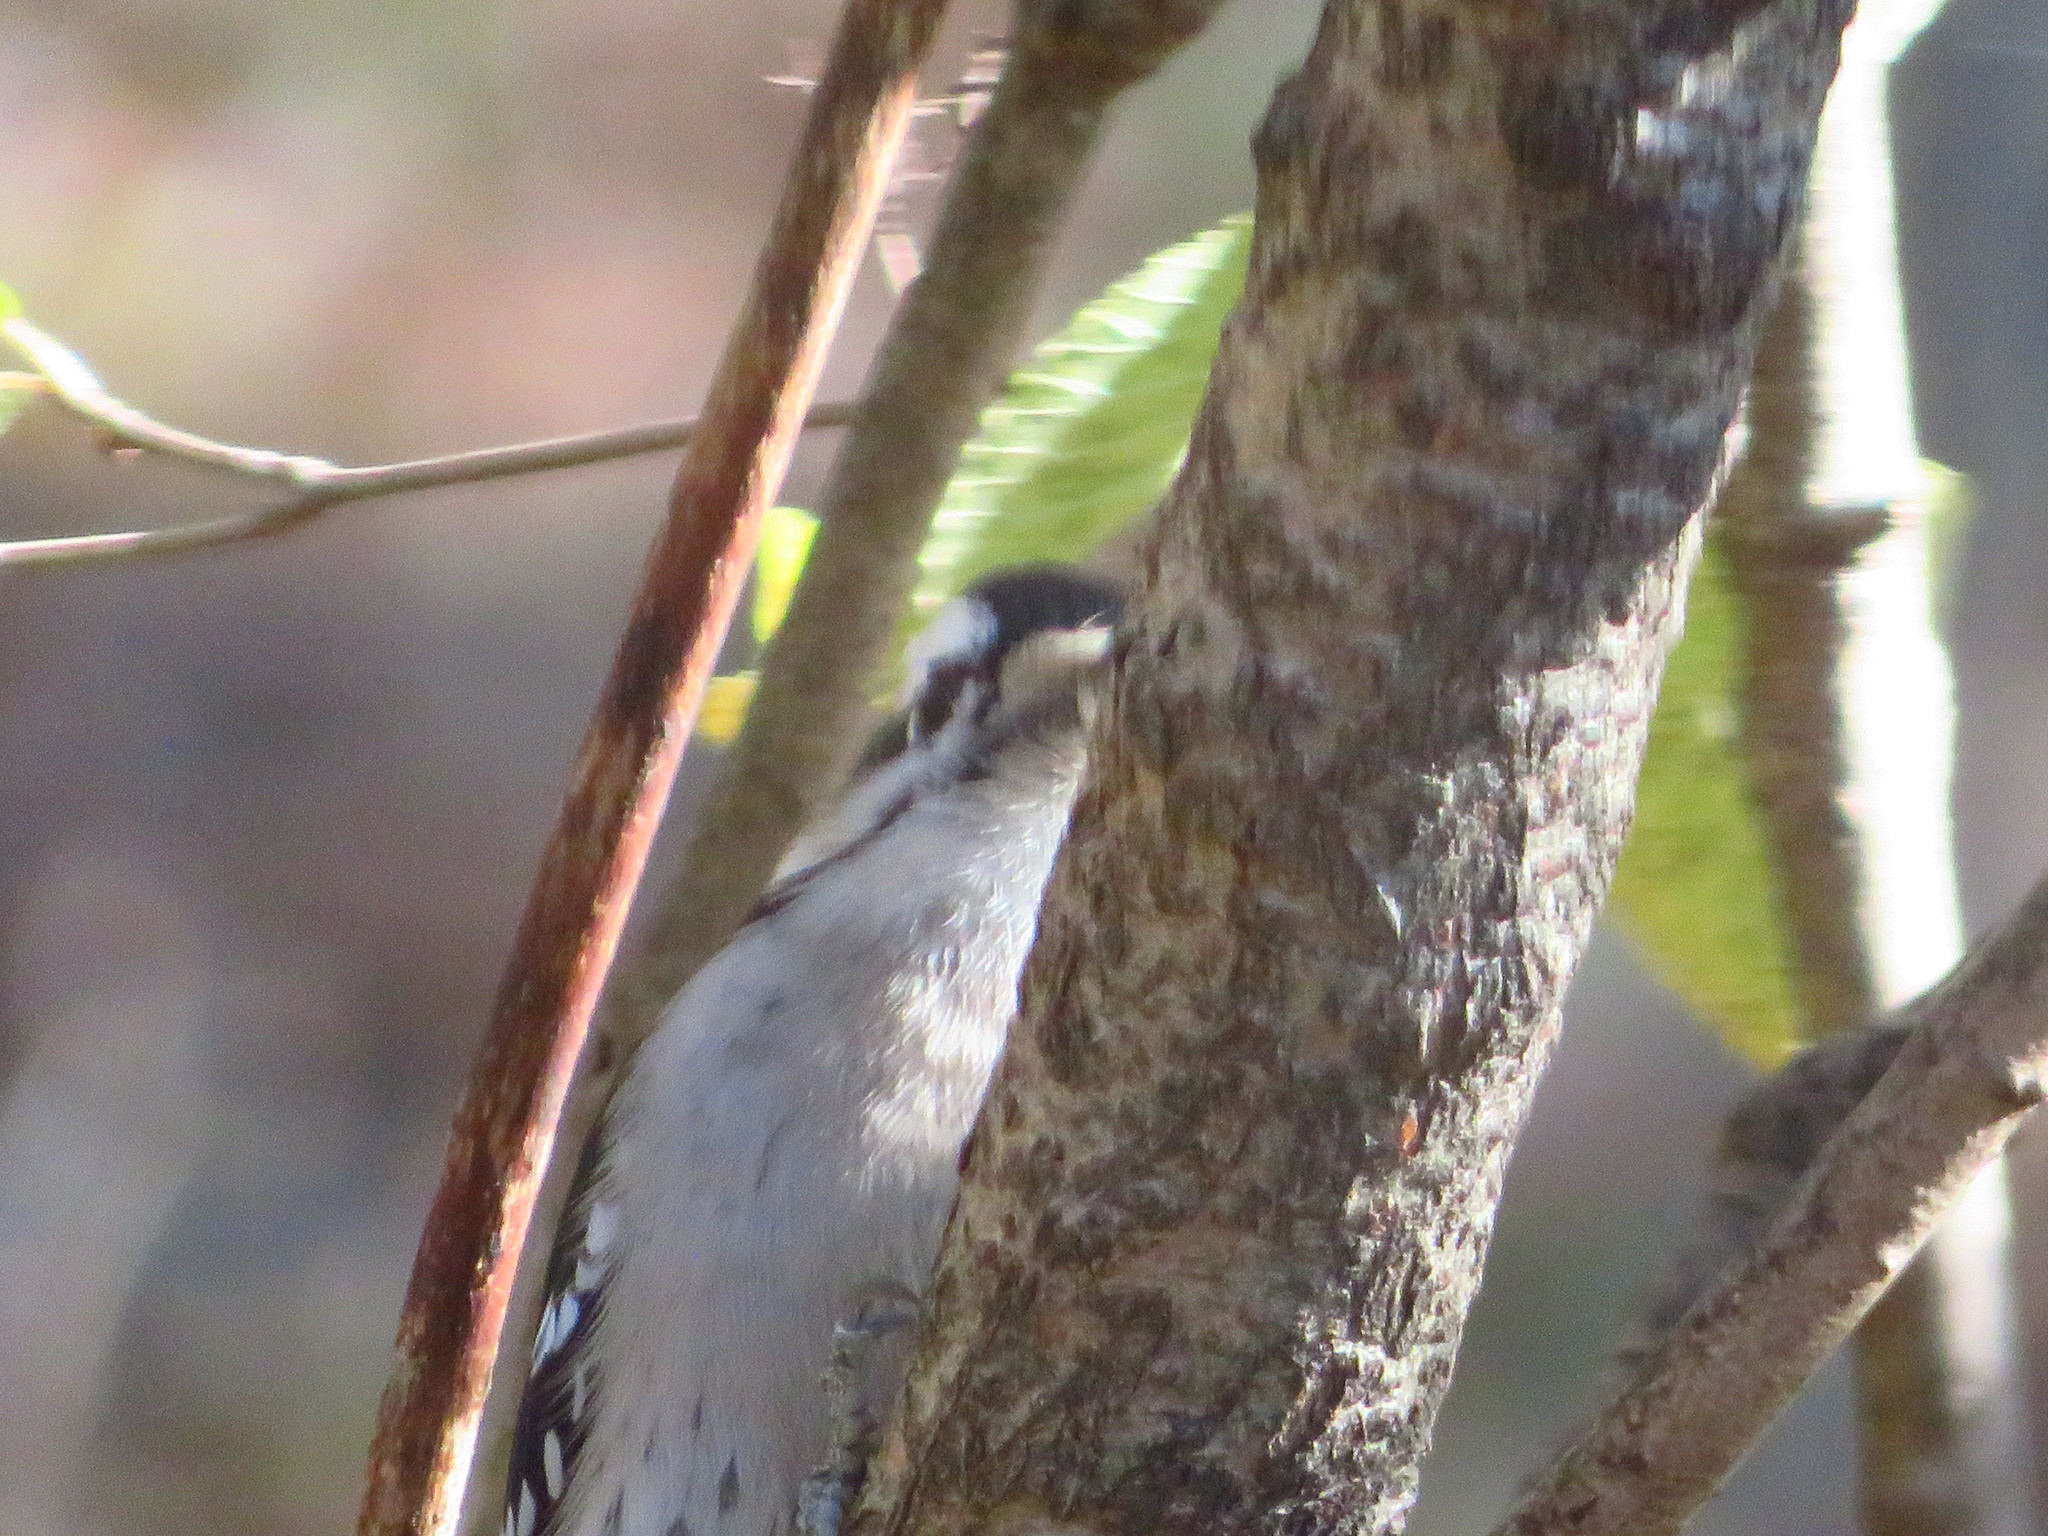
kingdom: Animalia
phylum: Chordata
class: Aves
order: Piciformes
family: Picidae
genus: Dryobates
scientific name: Dryobates pubescens
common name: Downy woodpecker
